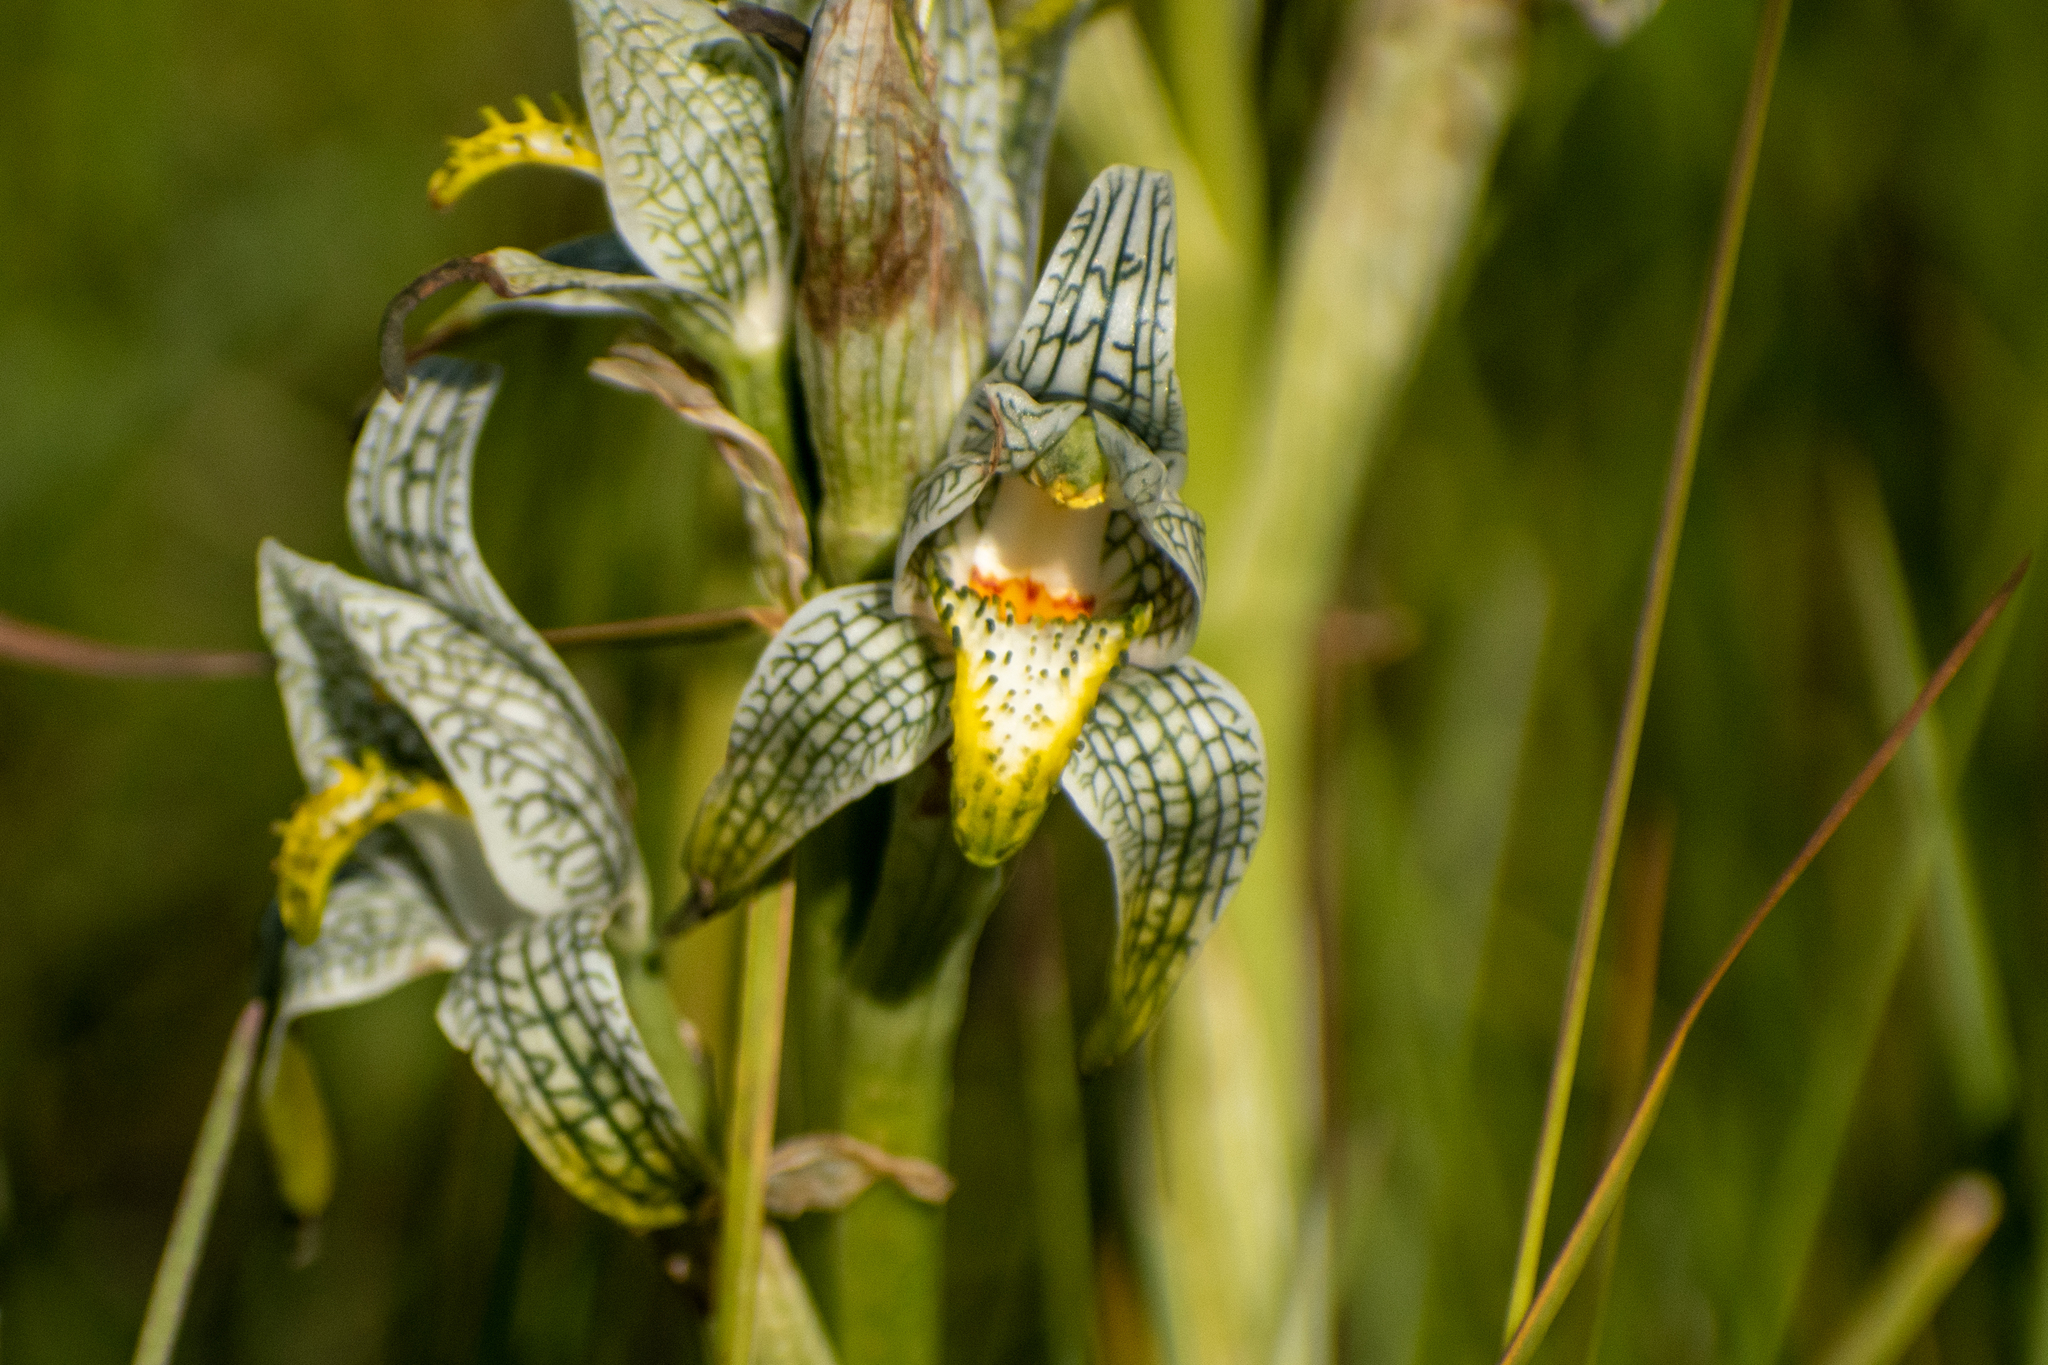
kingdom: Plantae
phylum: Tracheophyta
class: Liliopsida
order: Asparagales
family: Orchidaceae
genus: Chloraea
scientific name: Chloraea magellanica
